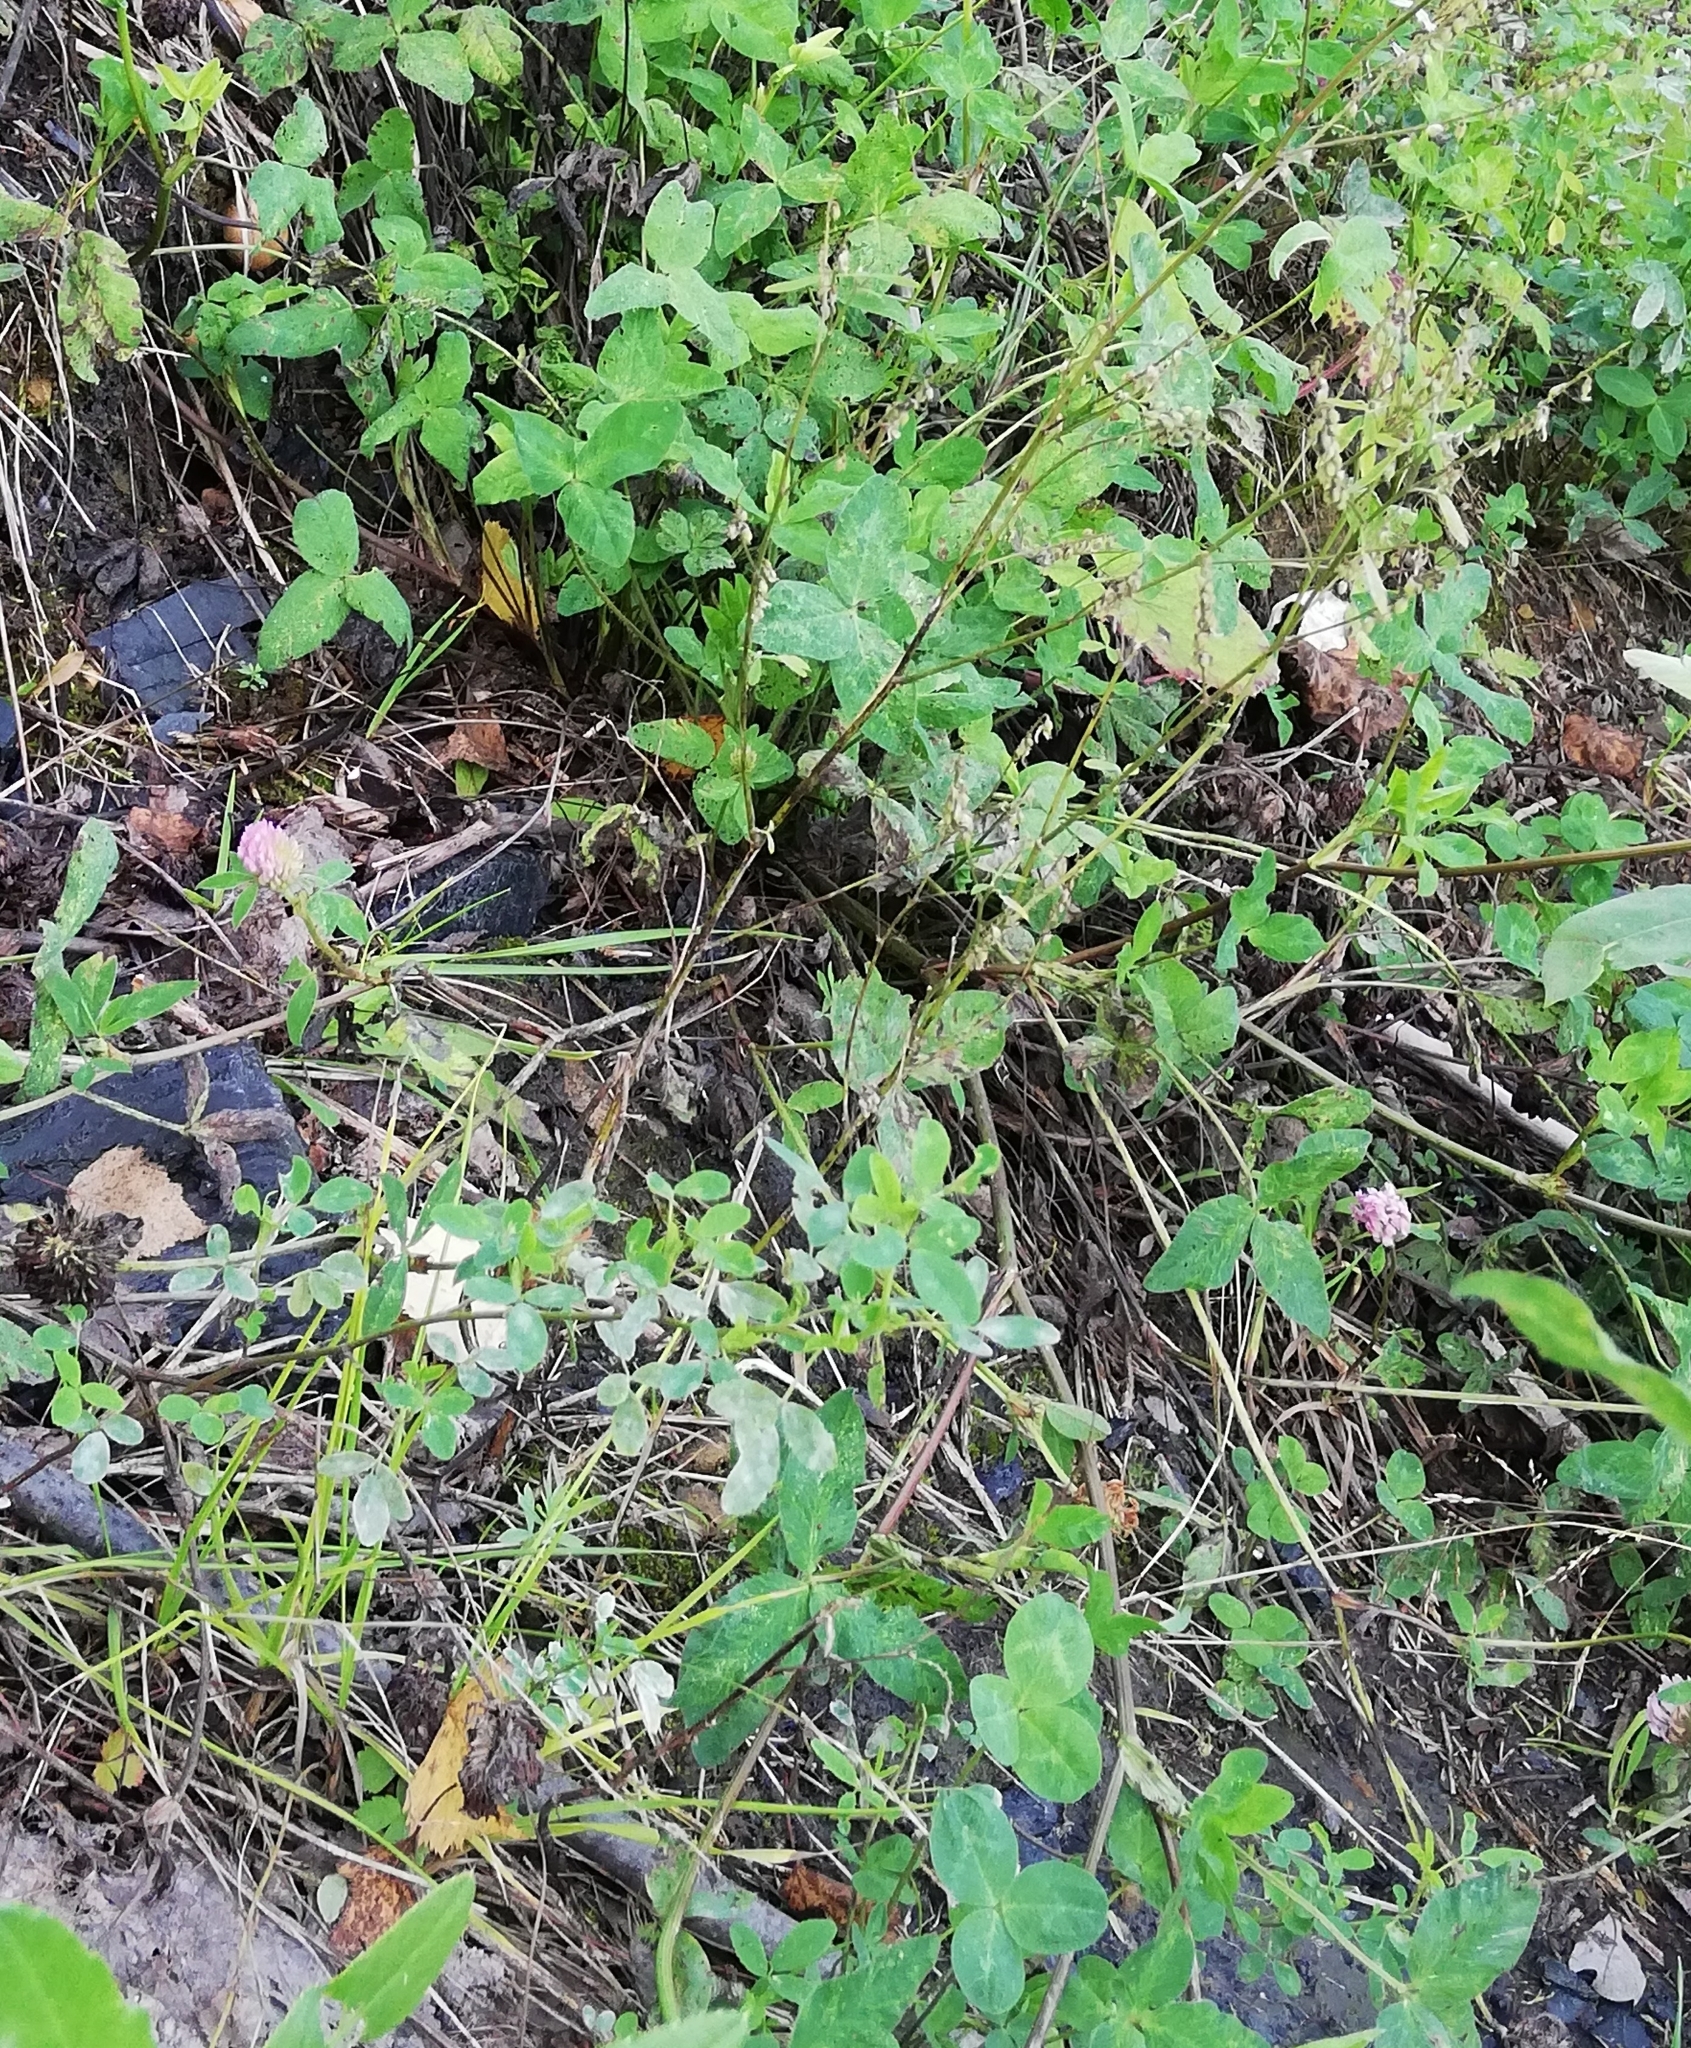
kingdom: Plantae
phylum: Tracheophyta
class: Magnoliopsida
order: Fabales
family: Fabaceae
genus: Trifolium
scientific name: Trifolium pratense
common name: Red clover
